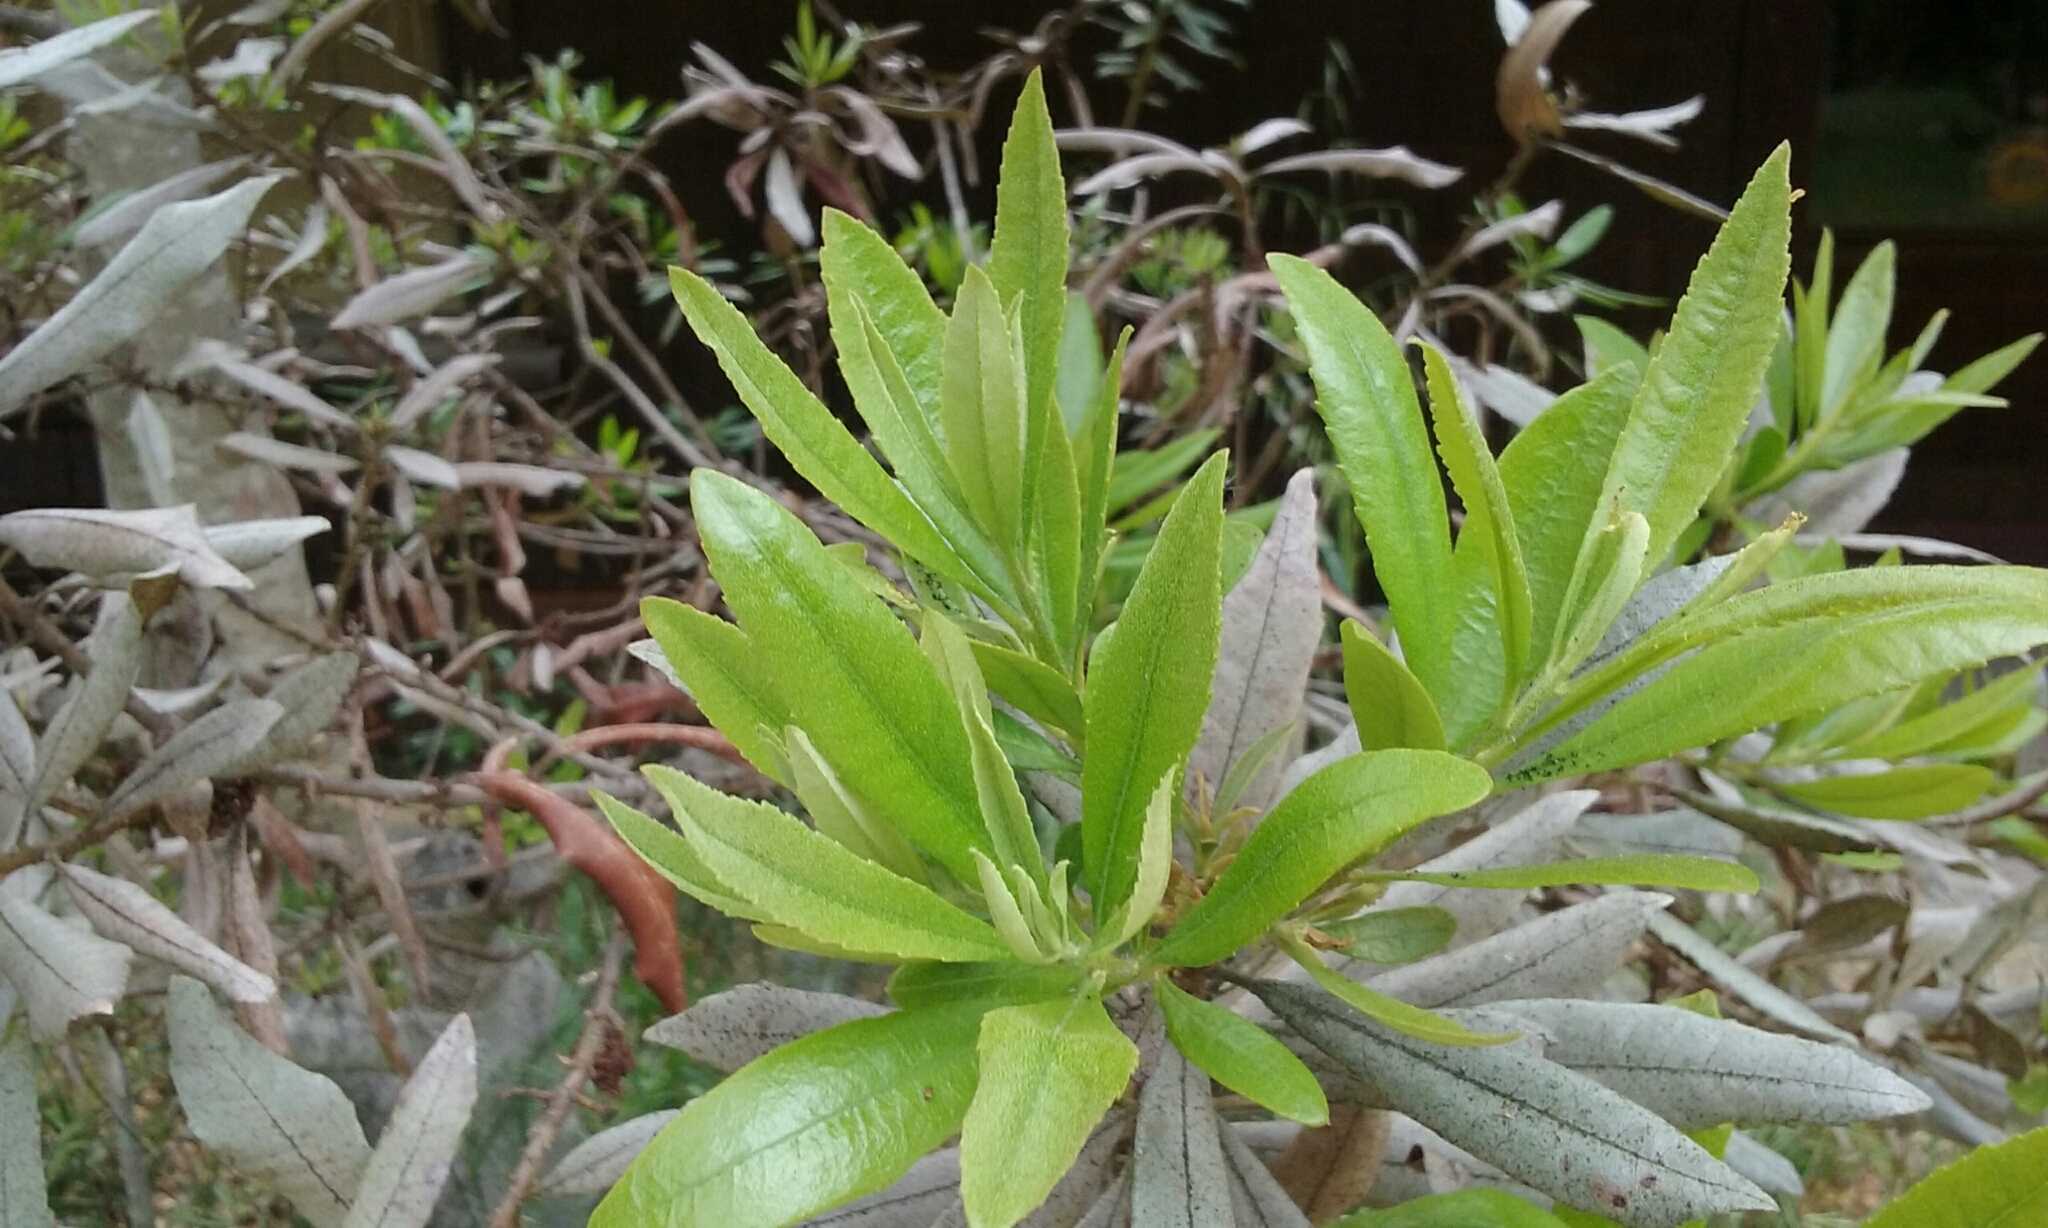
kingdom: Plantae
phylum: Tracheophyta
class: Magnoliopsida
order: Fagales
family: Myricaceae
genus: Morella
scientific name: Morella californica
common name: California wax-myrtle
